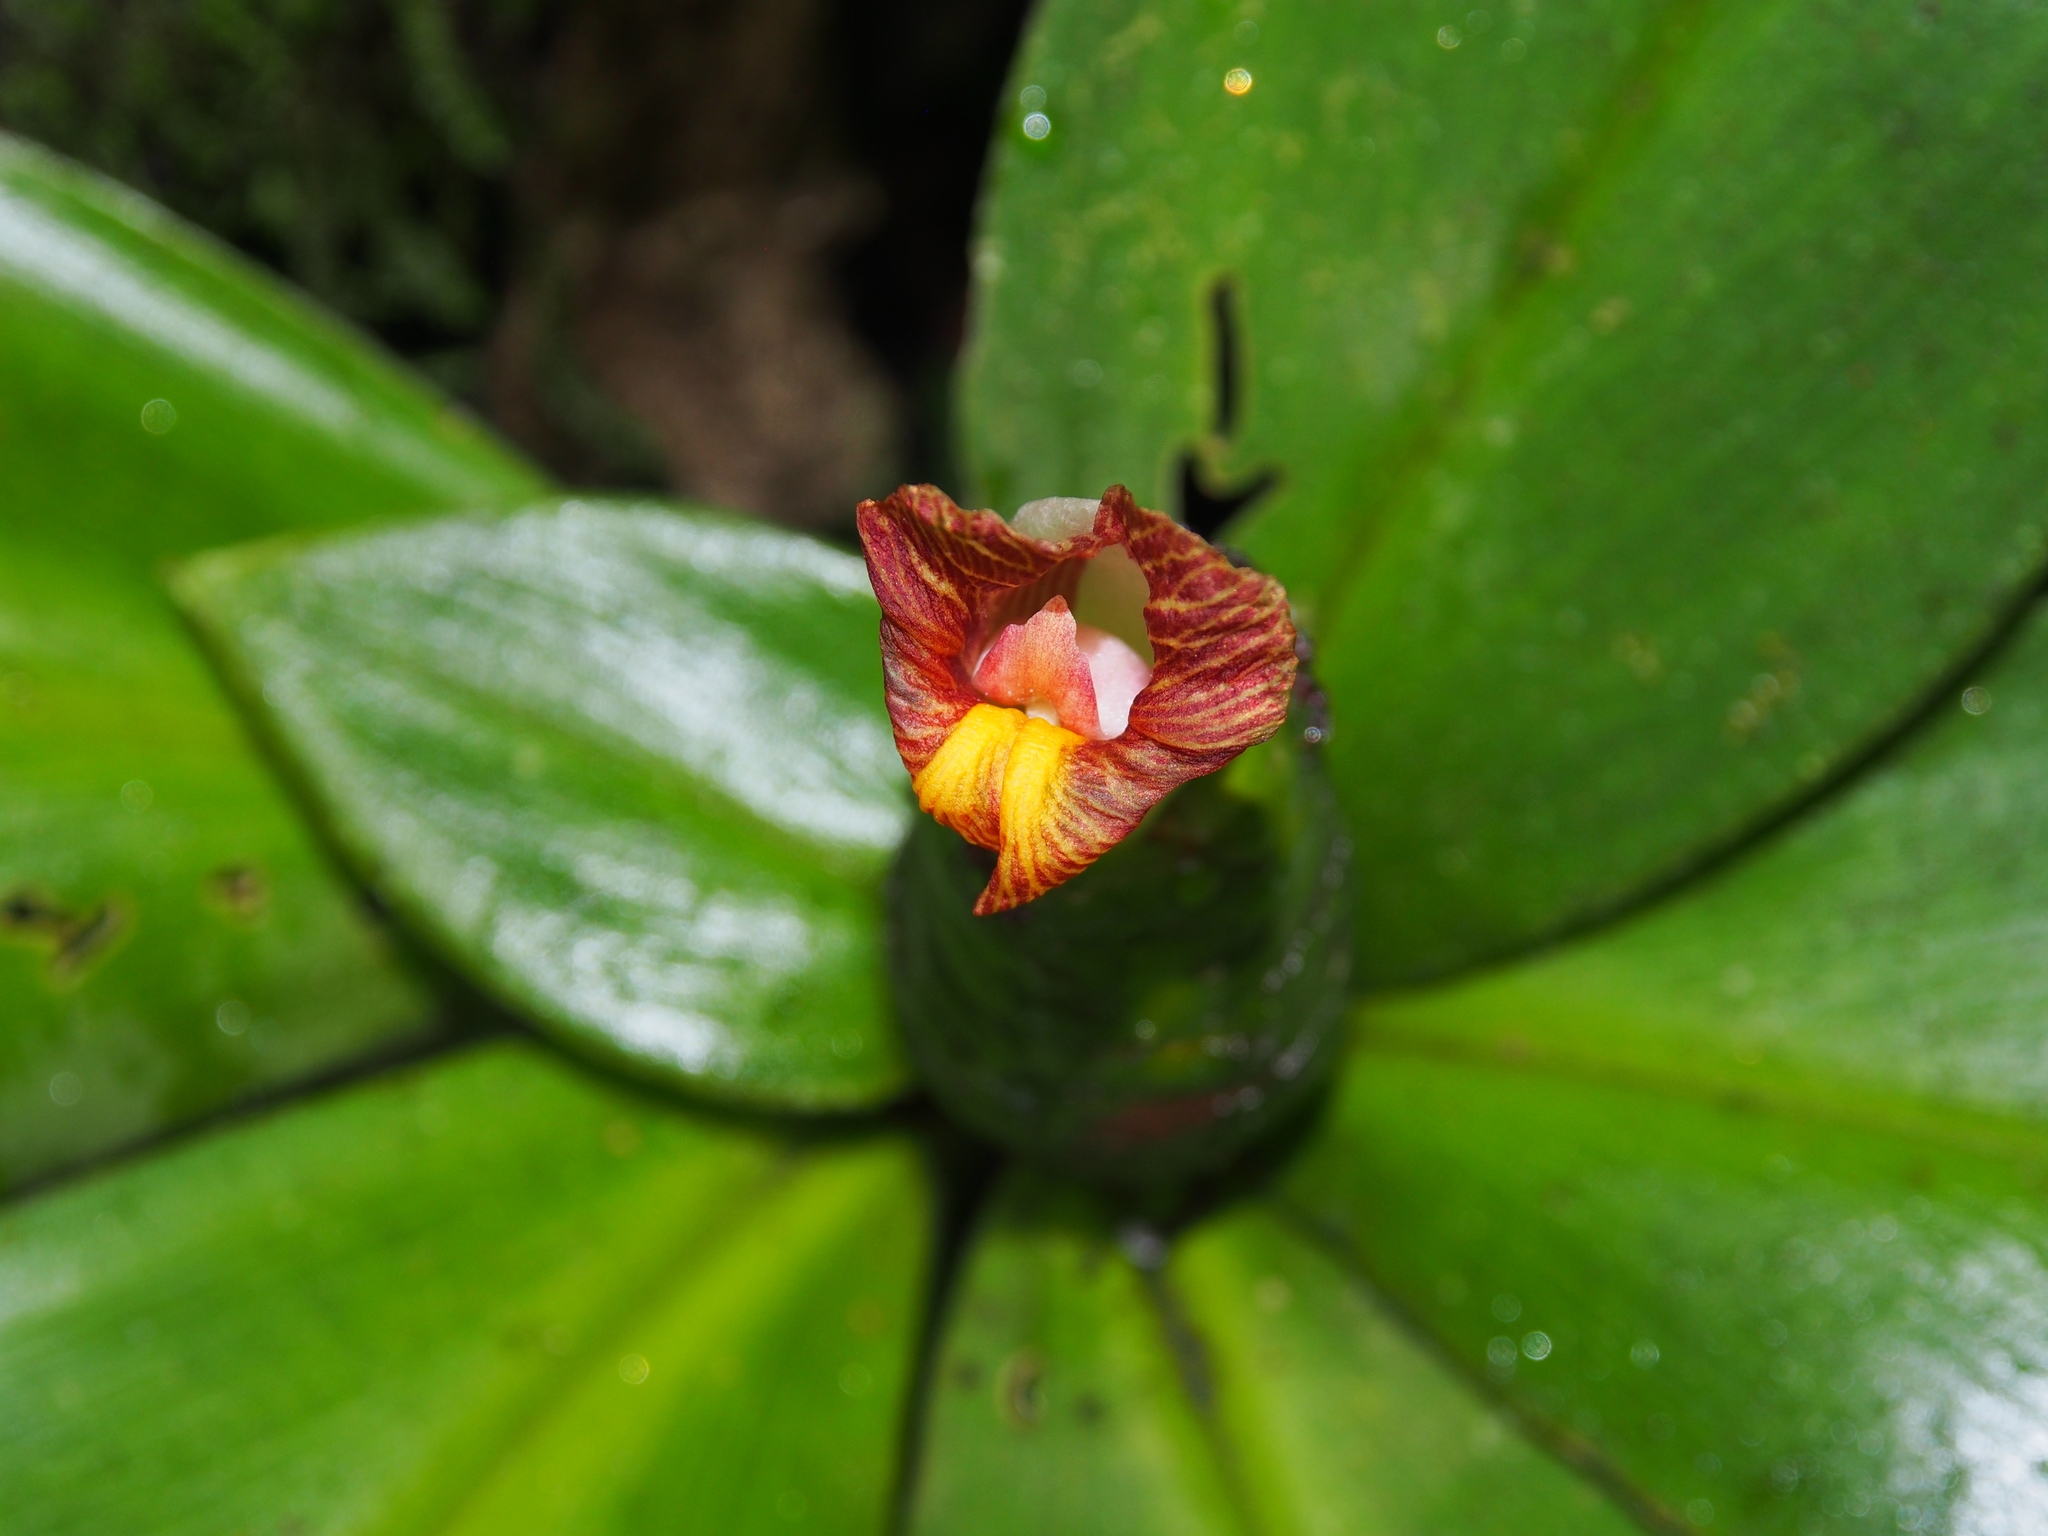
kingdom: Plantae
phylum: Tracheophyta
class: Liliopsida
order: Zingiberales
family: Costaceae
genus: Costus
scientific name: Costus laevis
